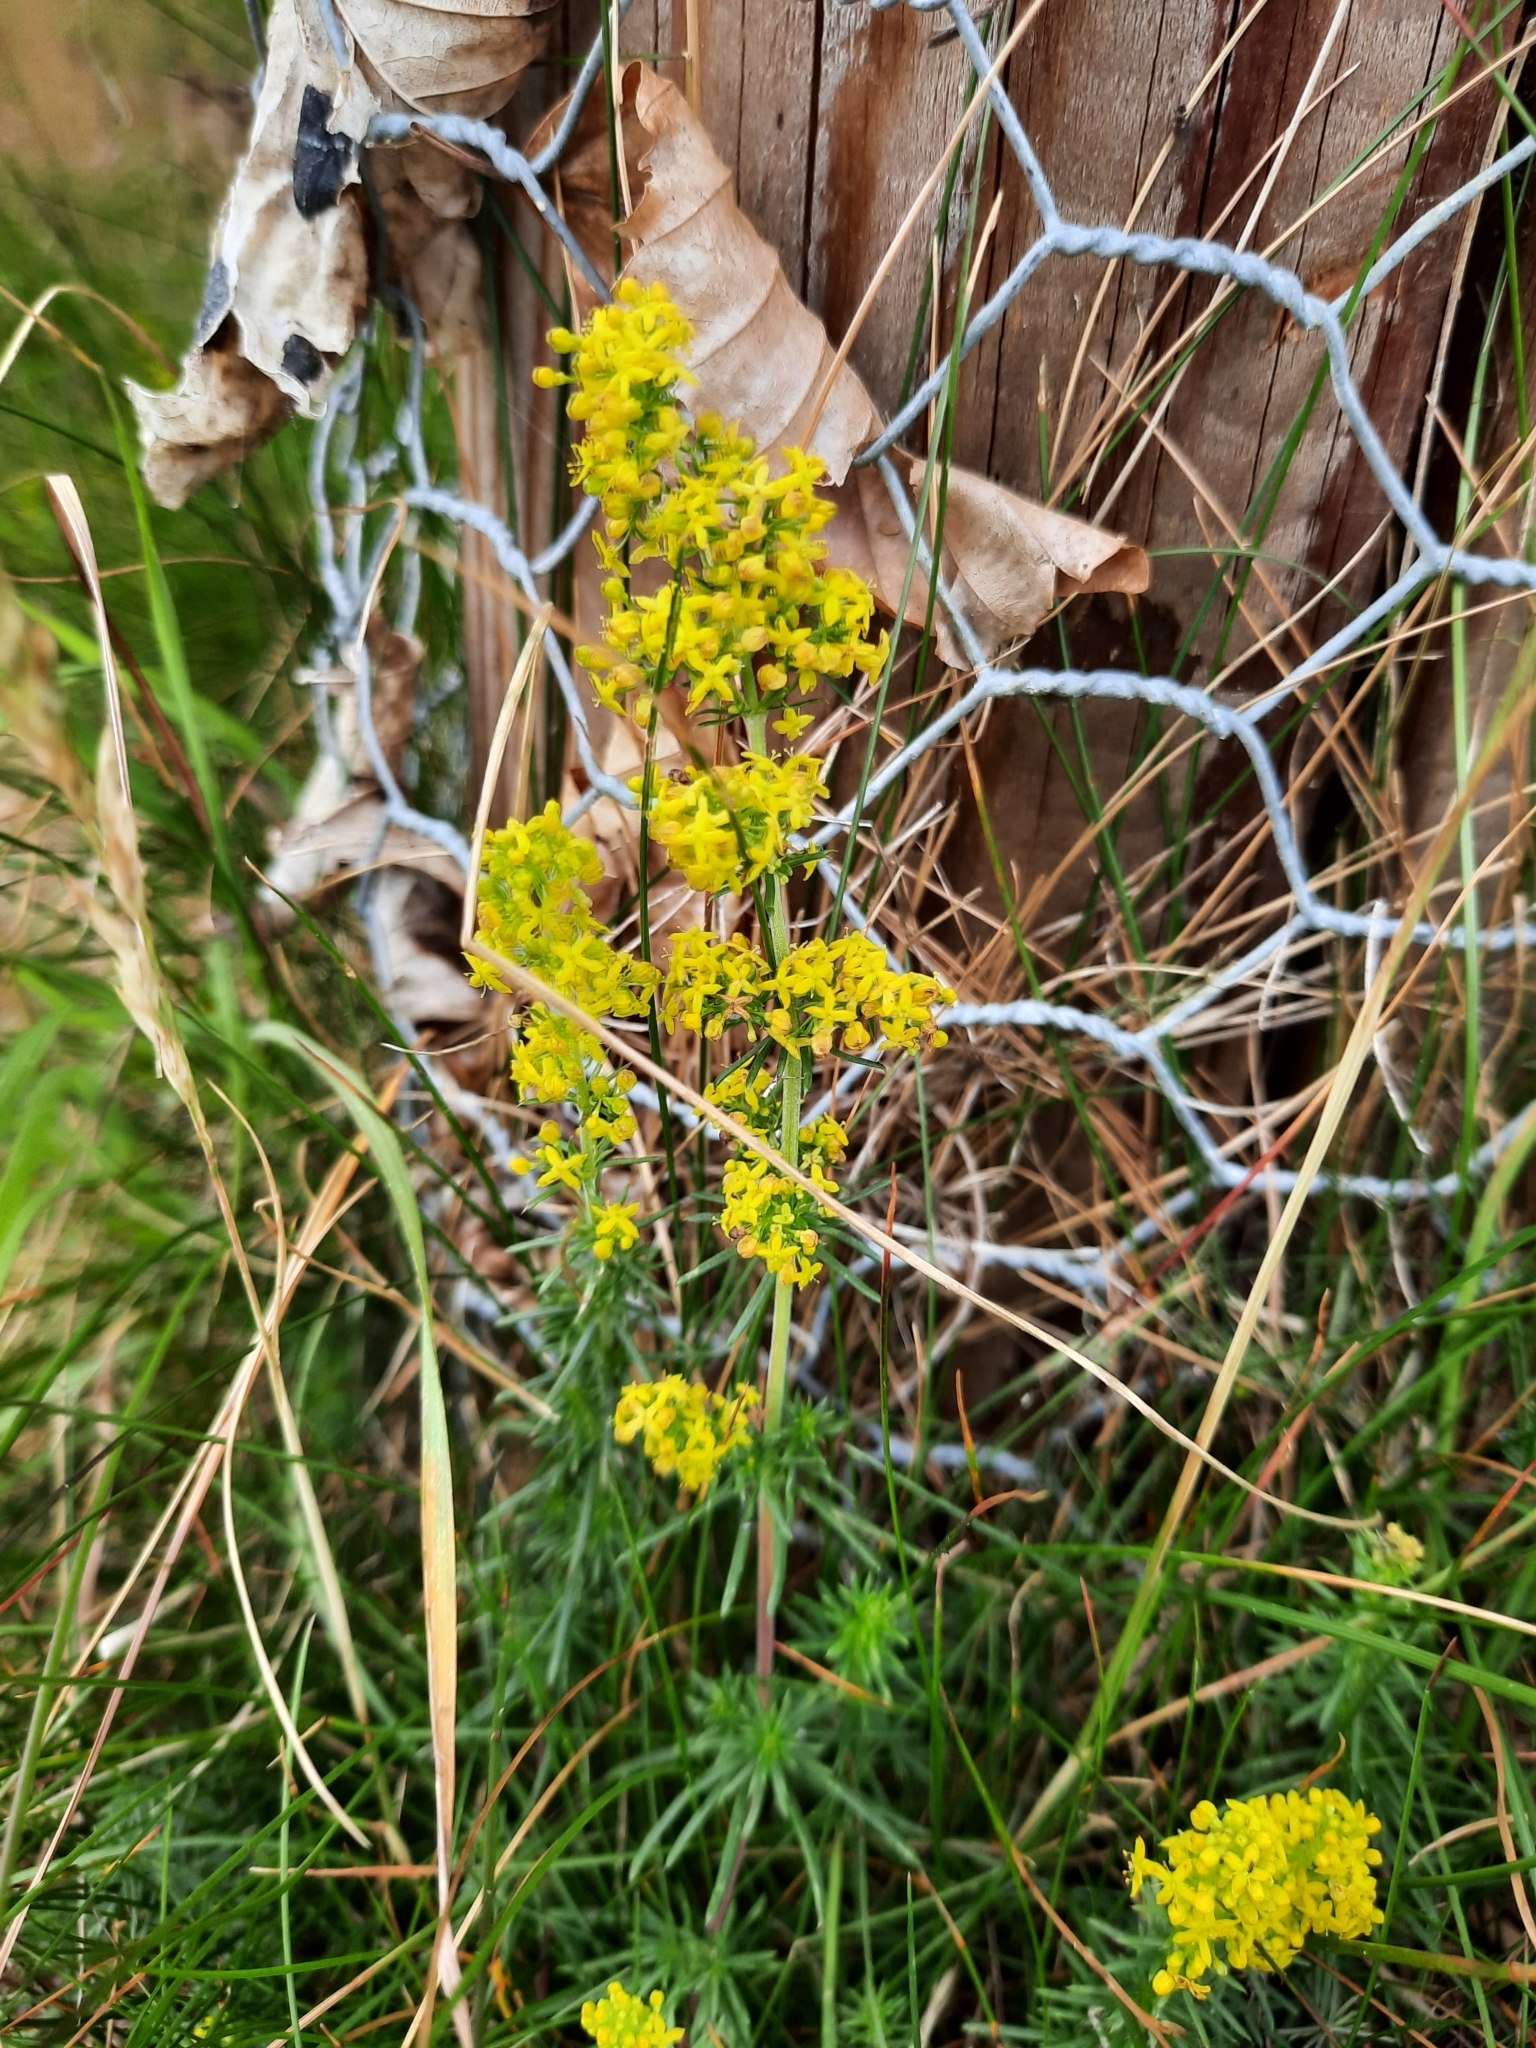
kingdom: Plantae
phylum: Tracheophyta
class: Magnoliopsida
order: Gentianales
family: Rubiaceae
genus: Galium
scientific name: Galium verum
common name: Lady's bedstraw
